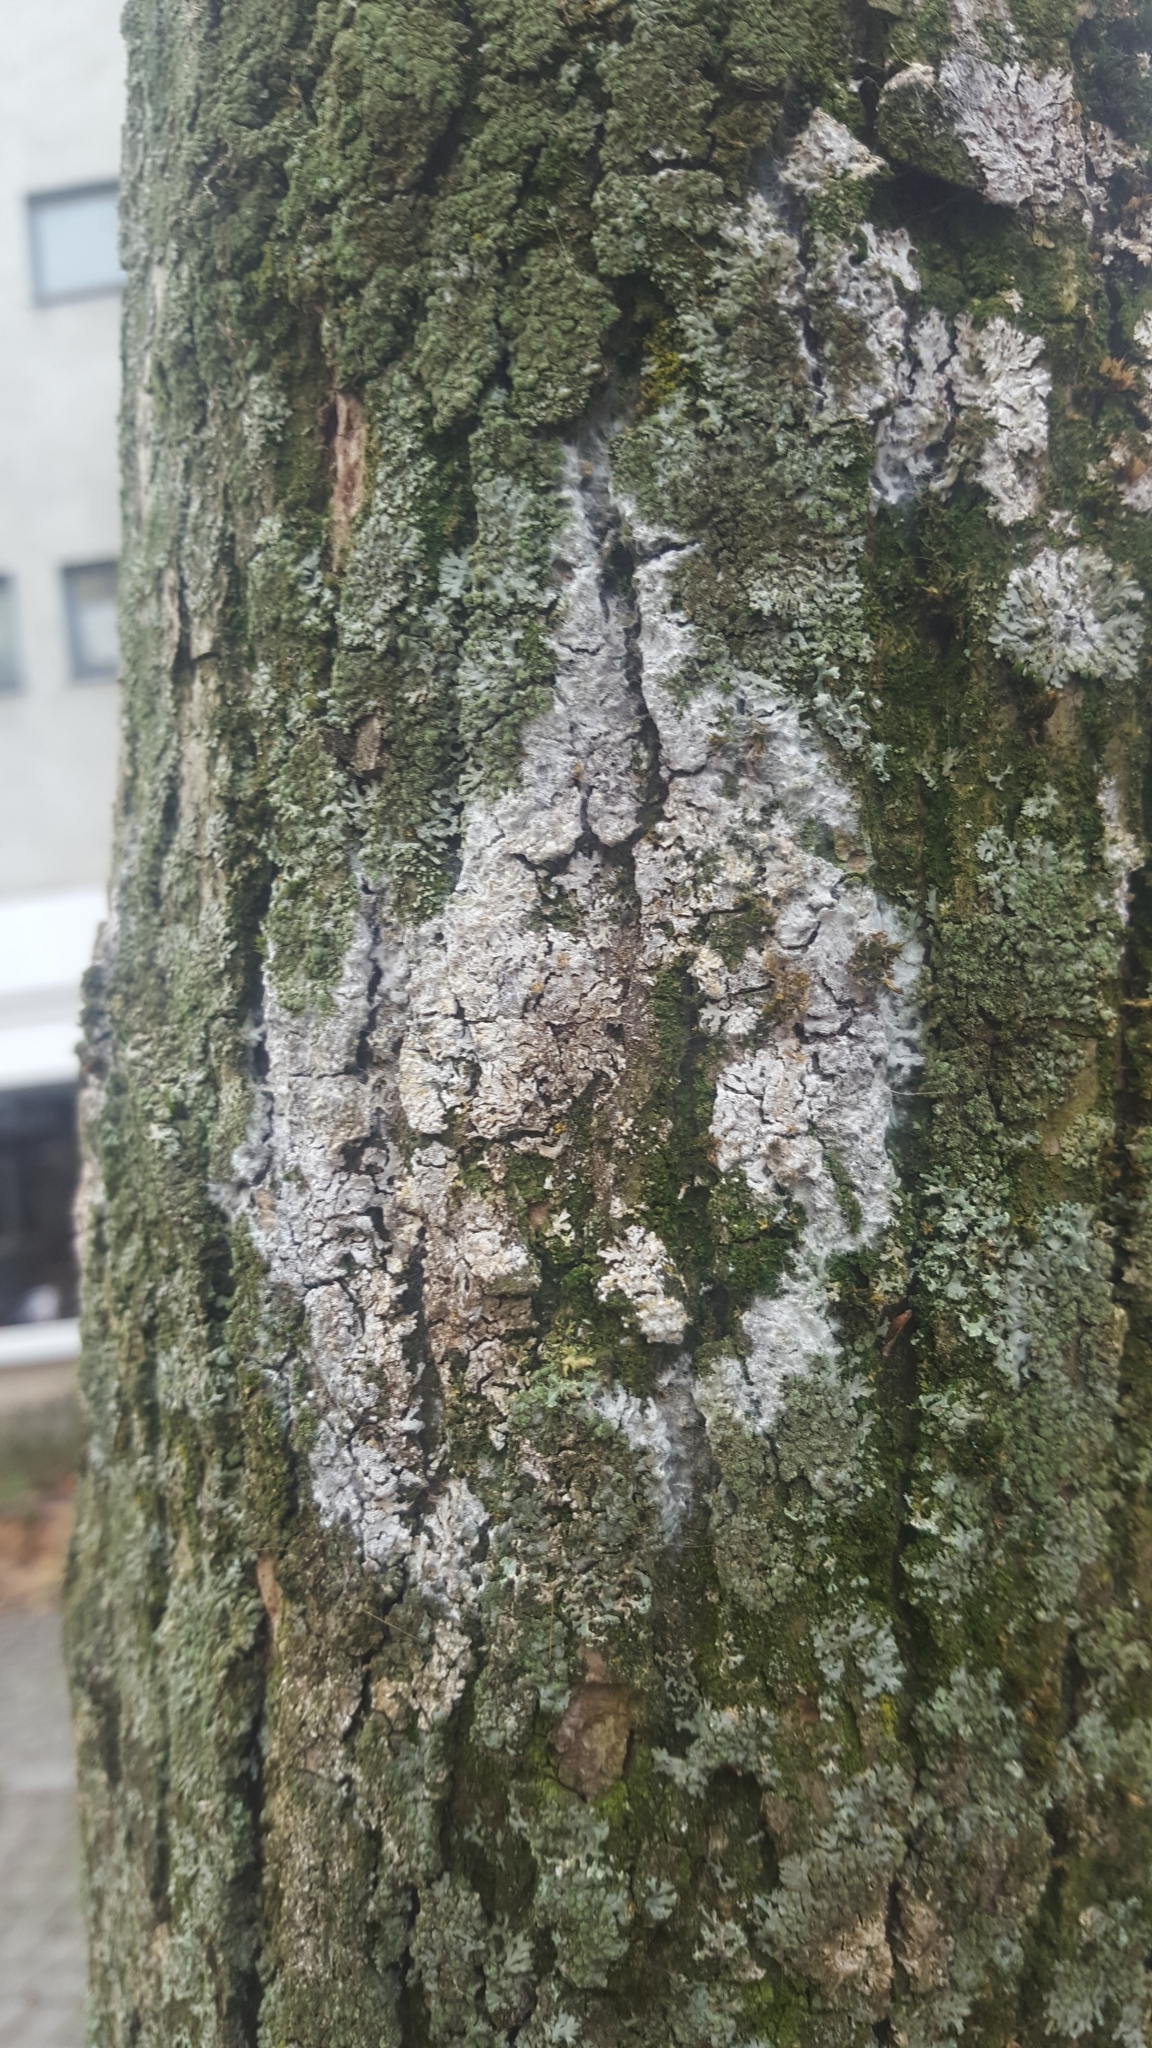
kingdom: Fungi
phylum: Basidiomycota
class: Agaricomycetes
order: Atheliales
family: Atheliaceae
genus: Athelia
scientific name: Athelia arachnoidea
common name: Candelabra duster
